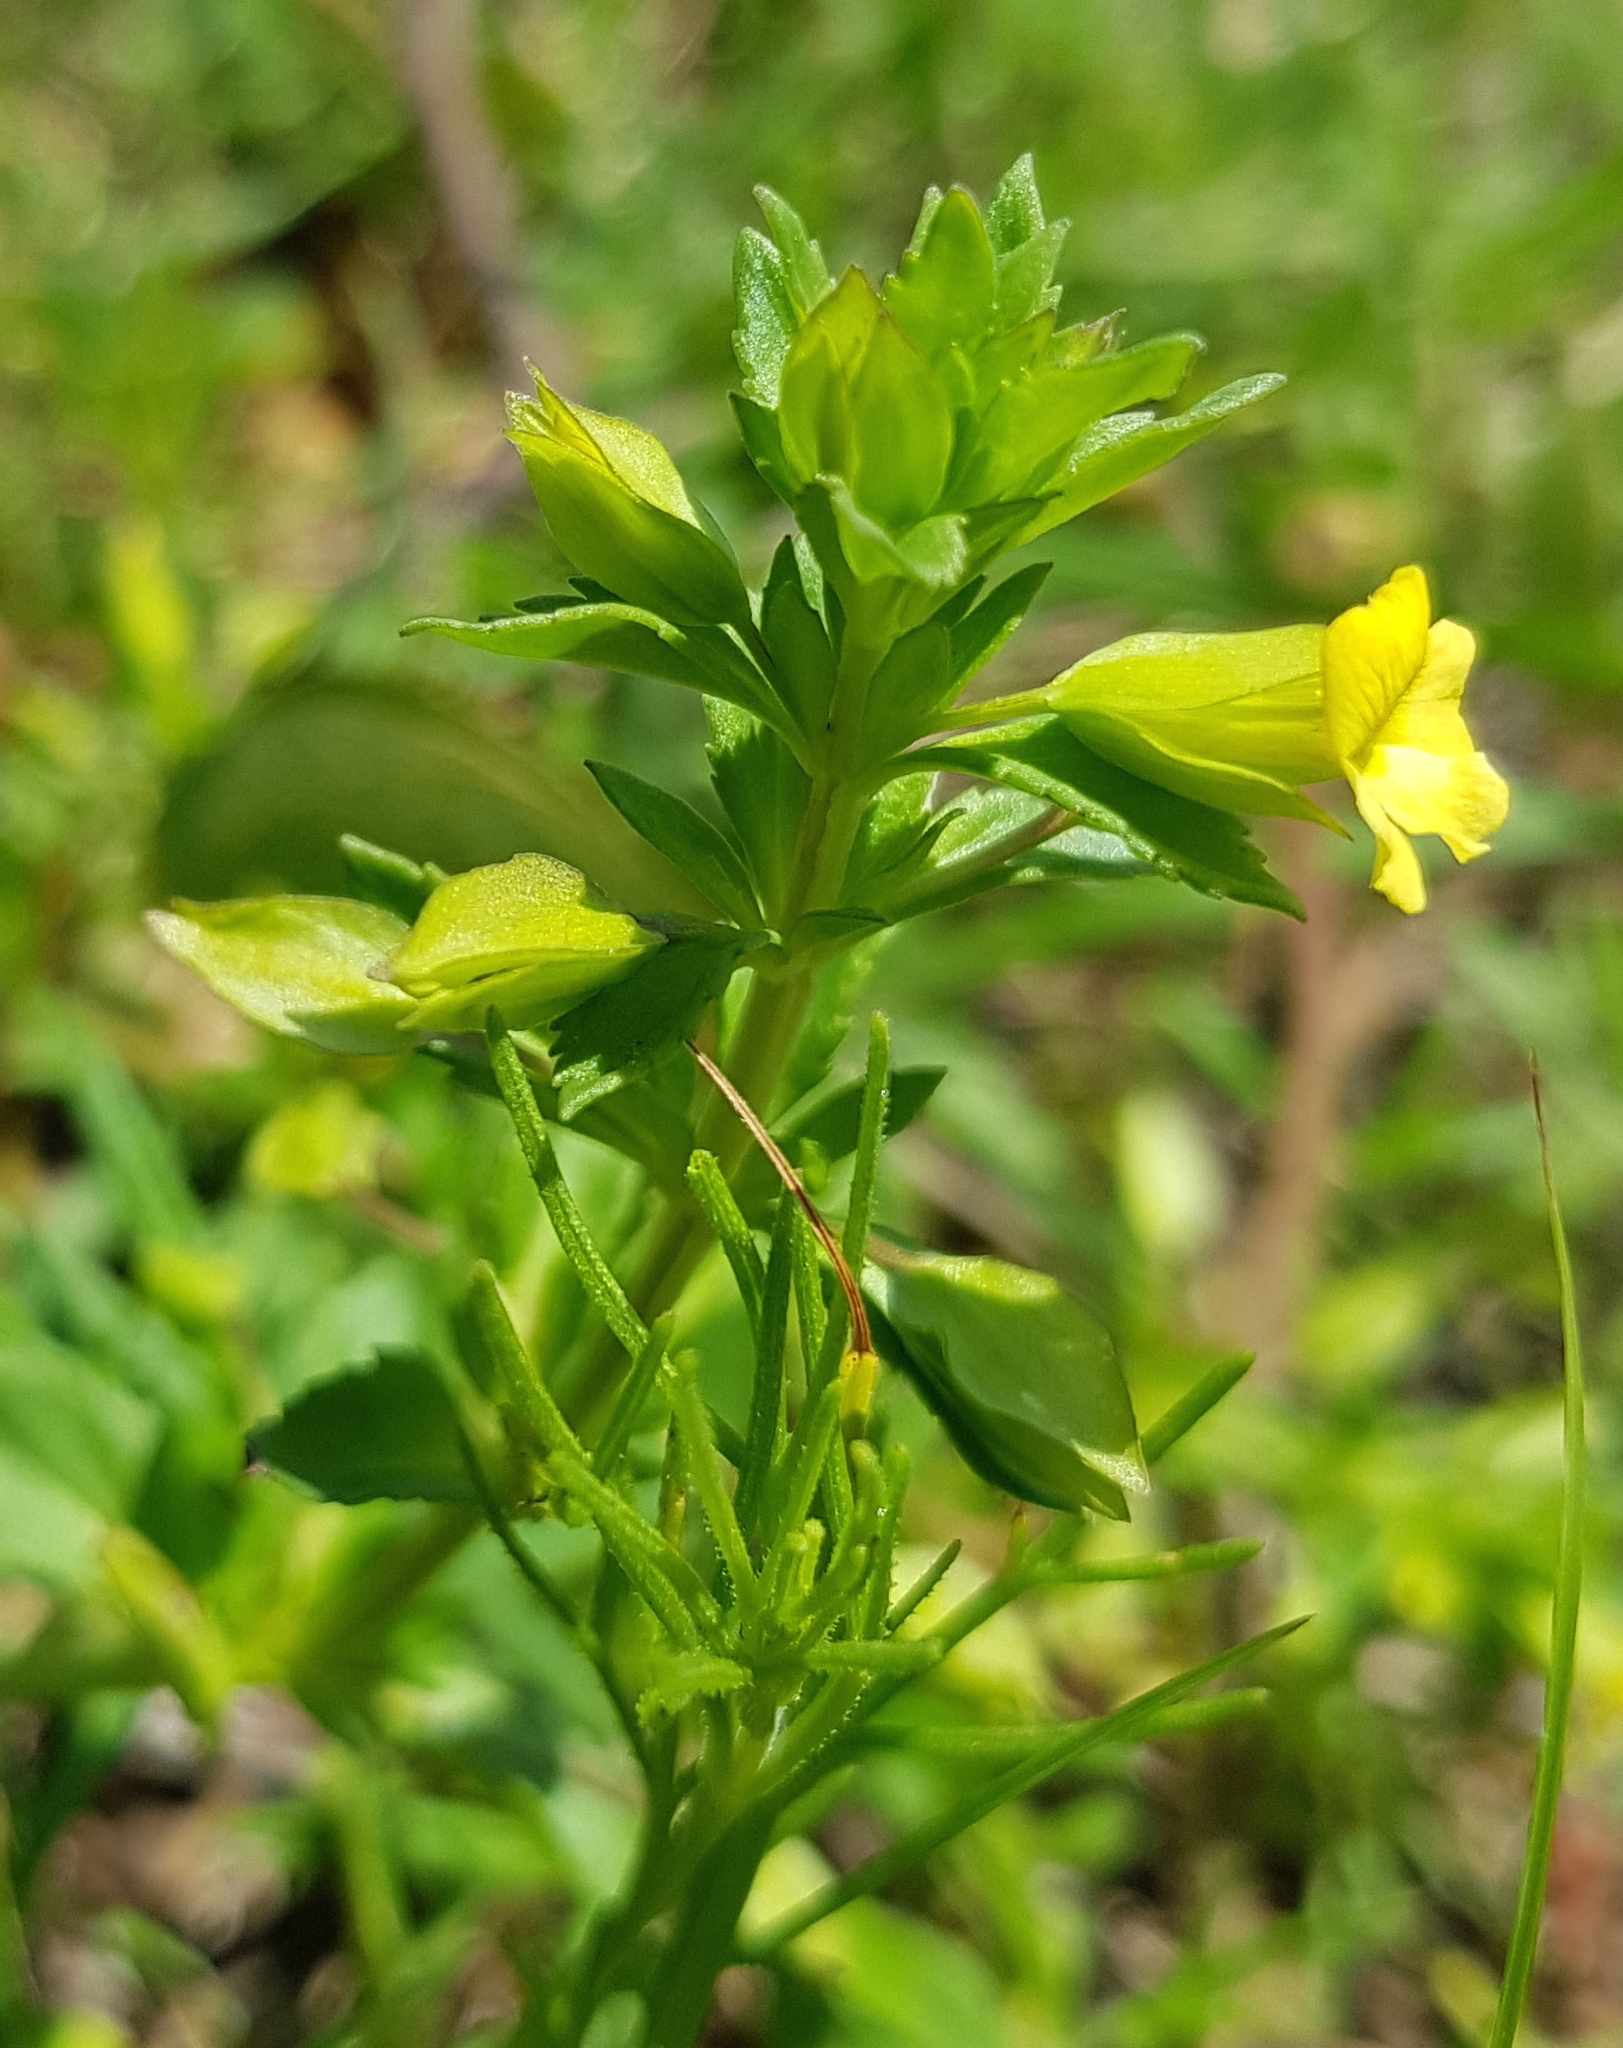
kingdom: Plantae
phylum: Tracheophyta
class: Magnoliopsida
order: Lamiales
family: Plantaginaceae
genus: Mecardonia
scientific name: Mecardonia procumbens
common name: Baby jump-up
